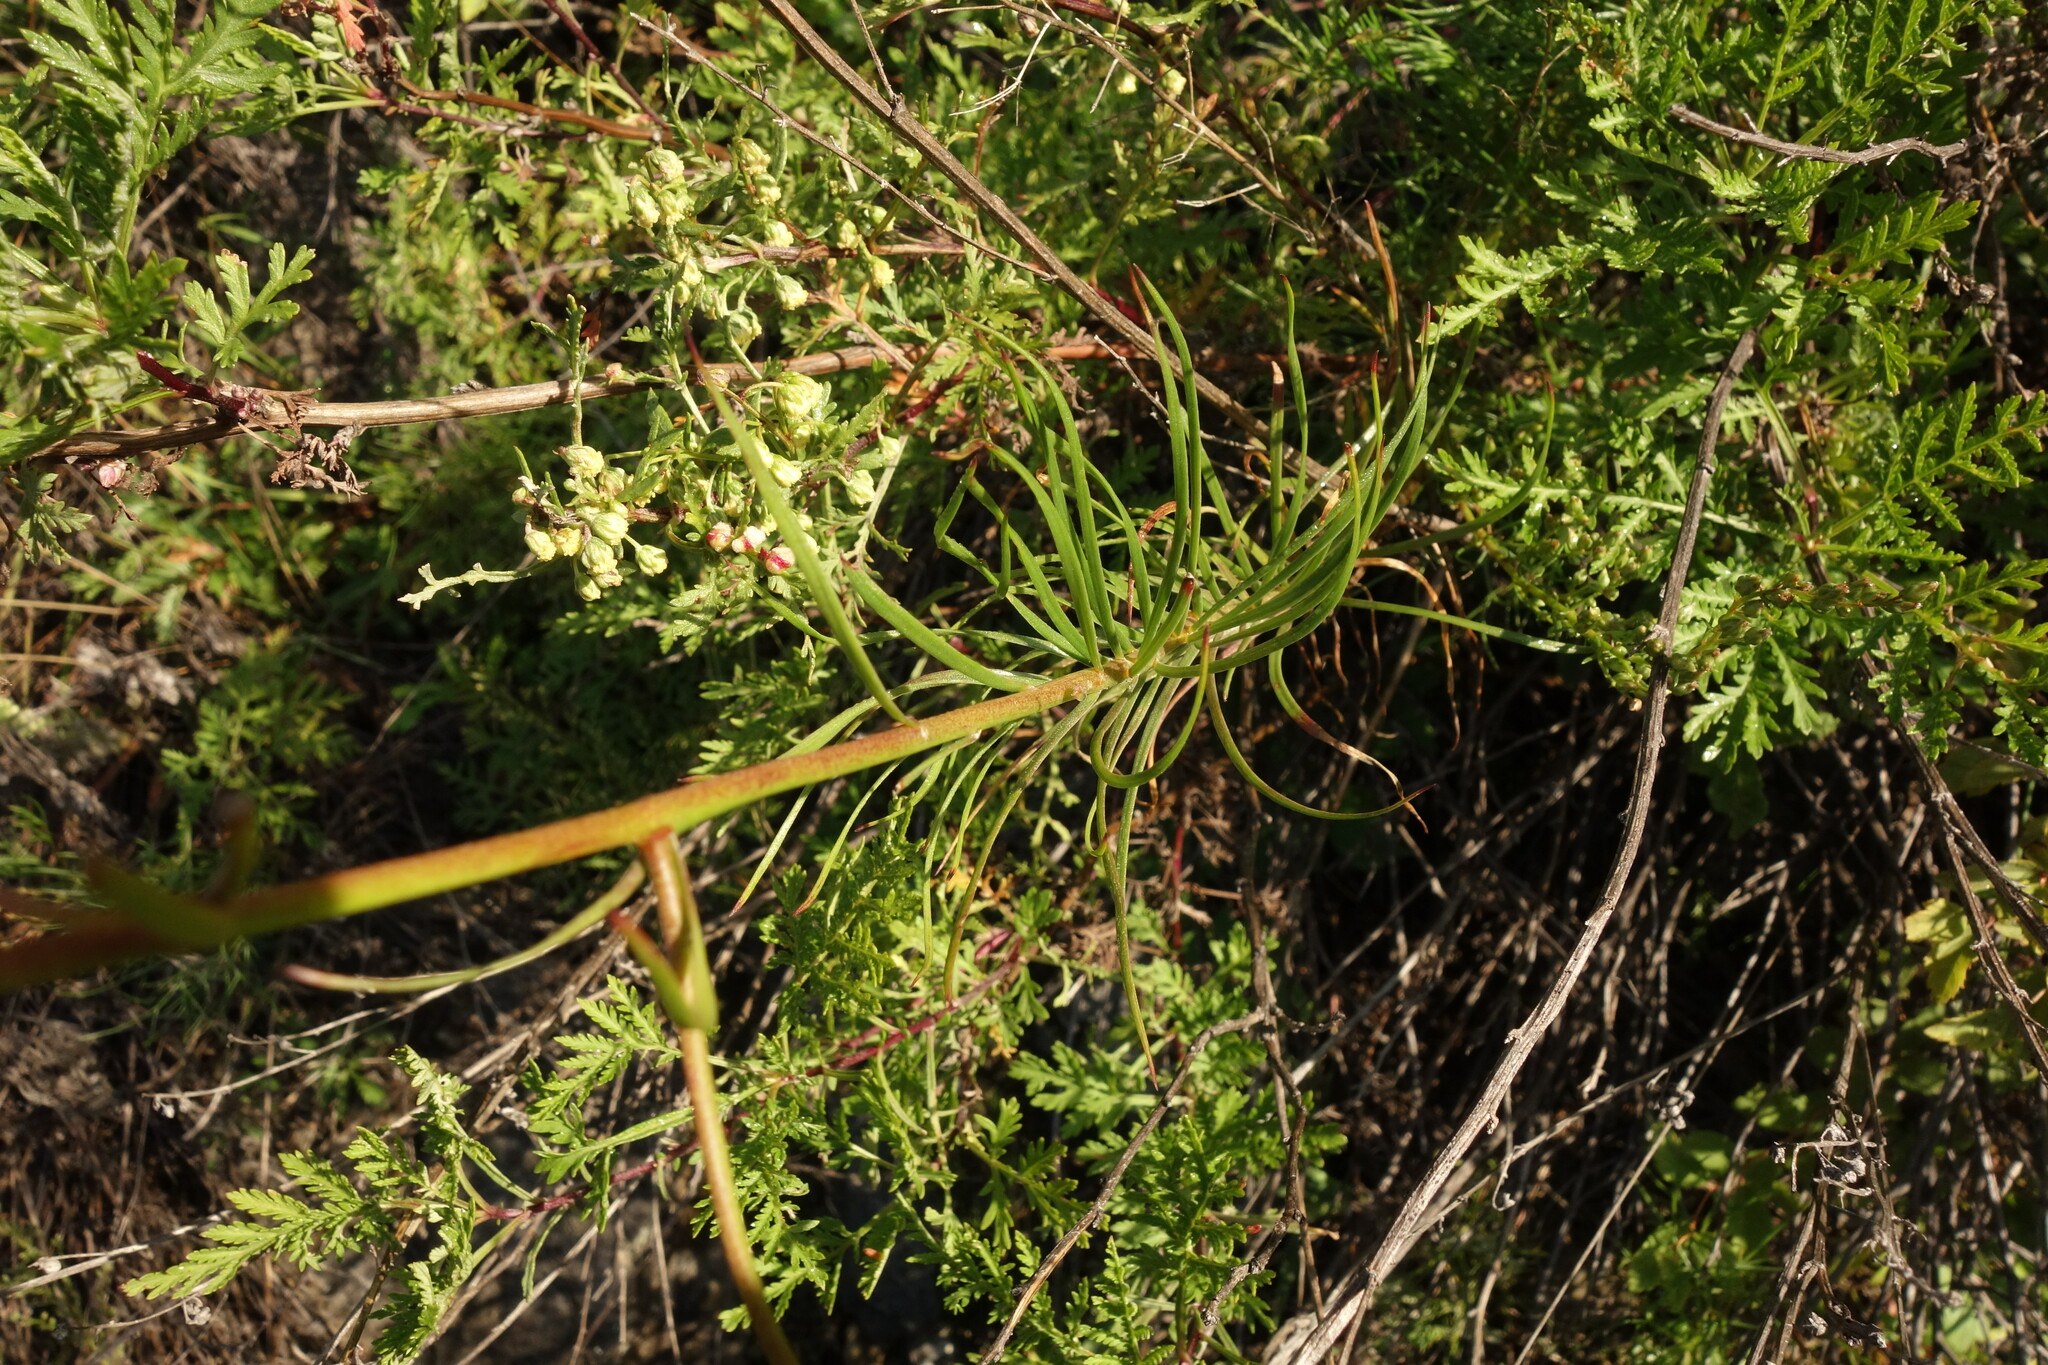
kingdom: Plantae
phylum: Tracheophyta
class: Liliopsida
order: Liliales
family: Liliaceae
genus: Lilium
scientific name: Lilium pumilum
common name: Coral lily
